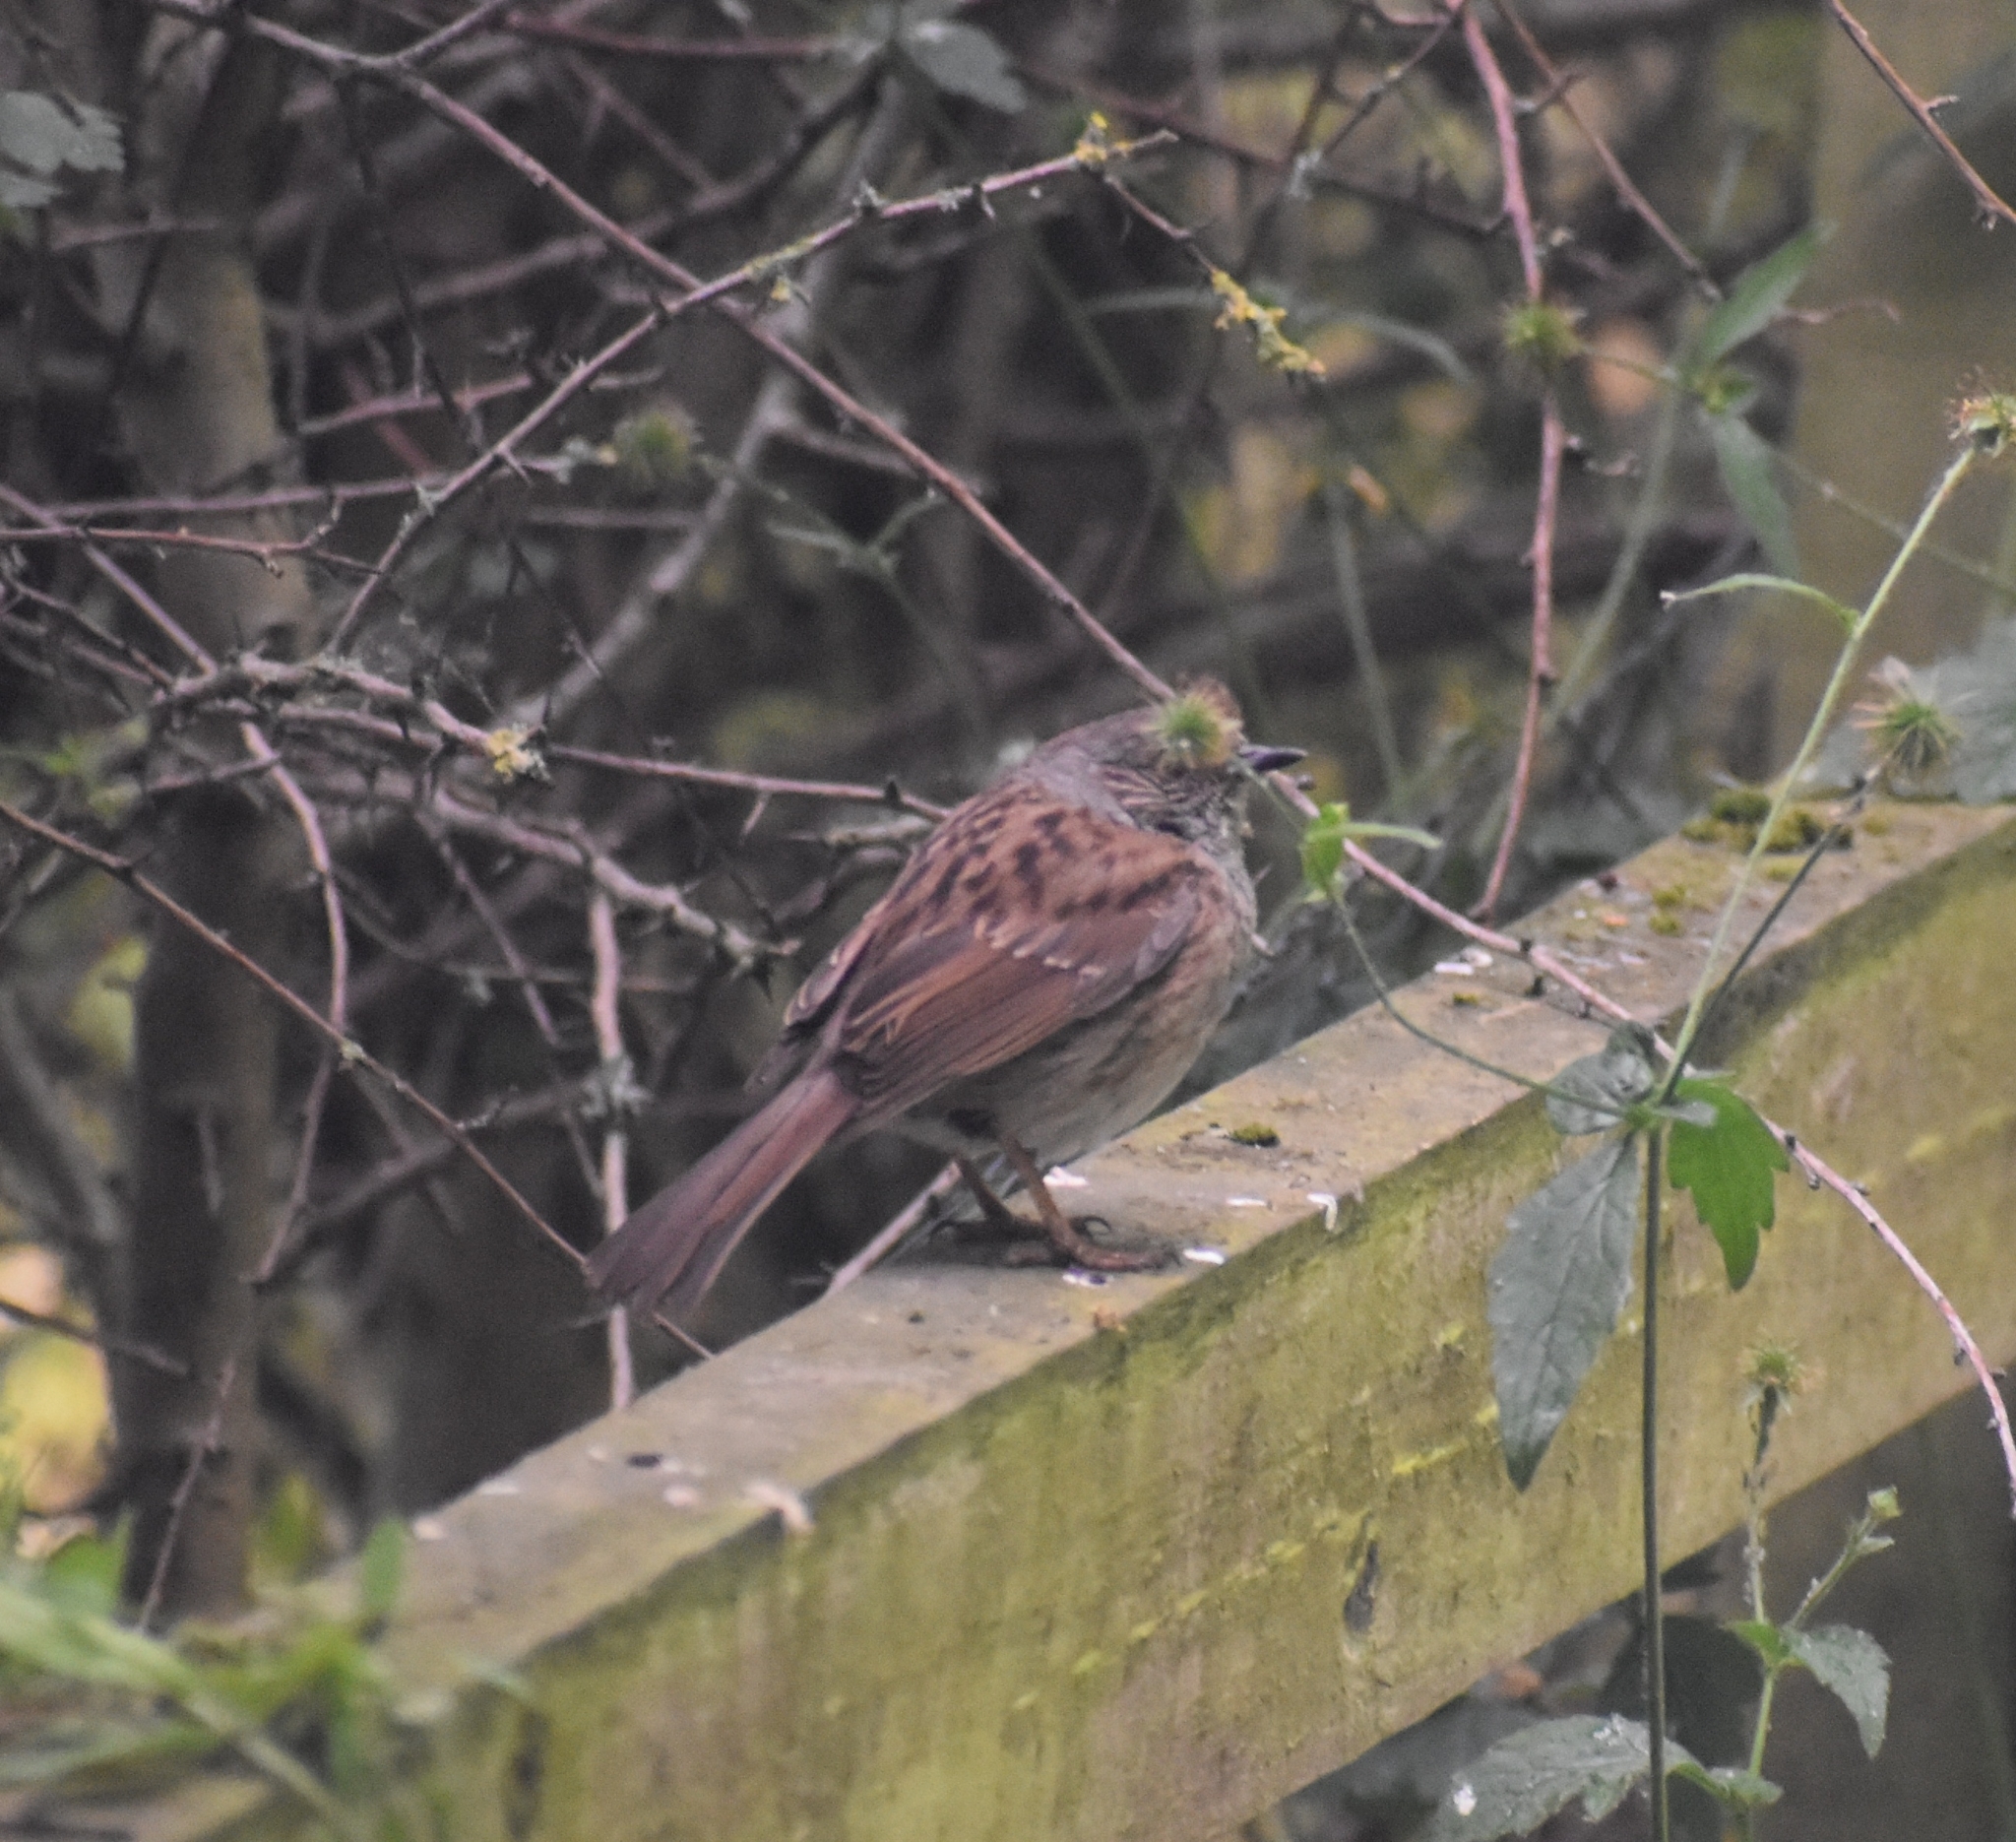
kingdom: Animalia
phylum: Chordata
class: Aves
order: Passeriformes
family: Prunellidae
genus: Prunella
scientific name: Prunella modularis
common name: Dunnock
